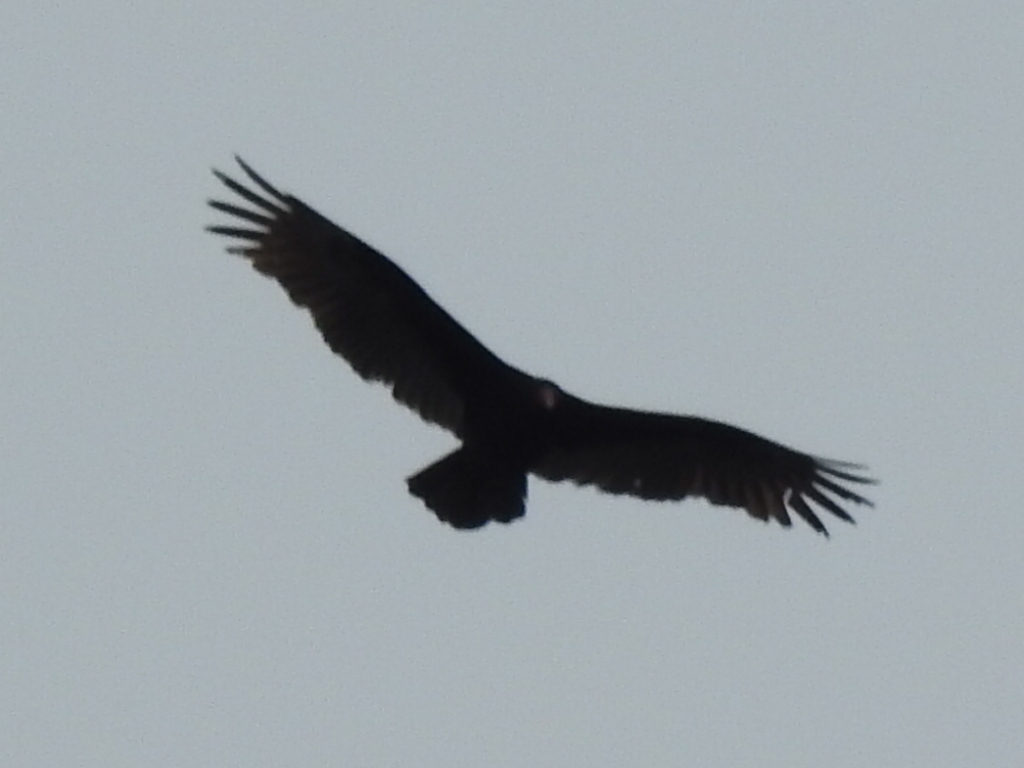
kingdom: Animalia
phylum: Chordata
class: Aves
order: Accipitriformes
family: Cathartidae
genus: Cathartes
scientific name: Cathartes aura
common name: Turkey vulture
